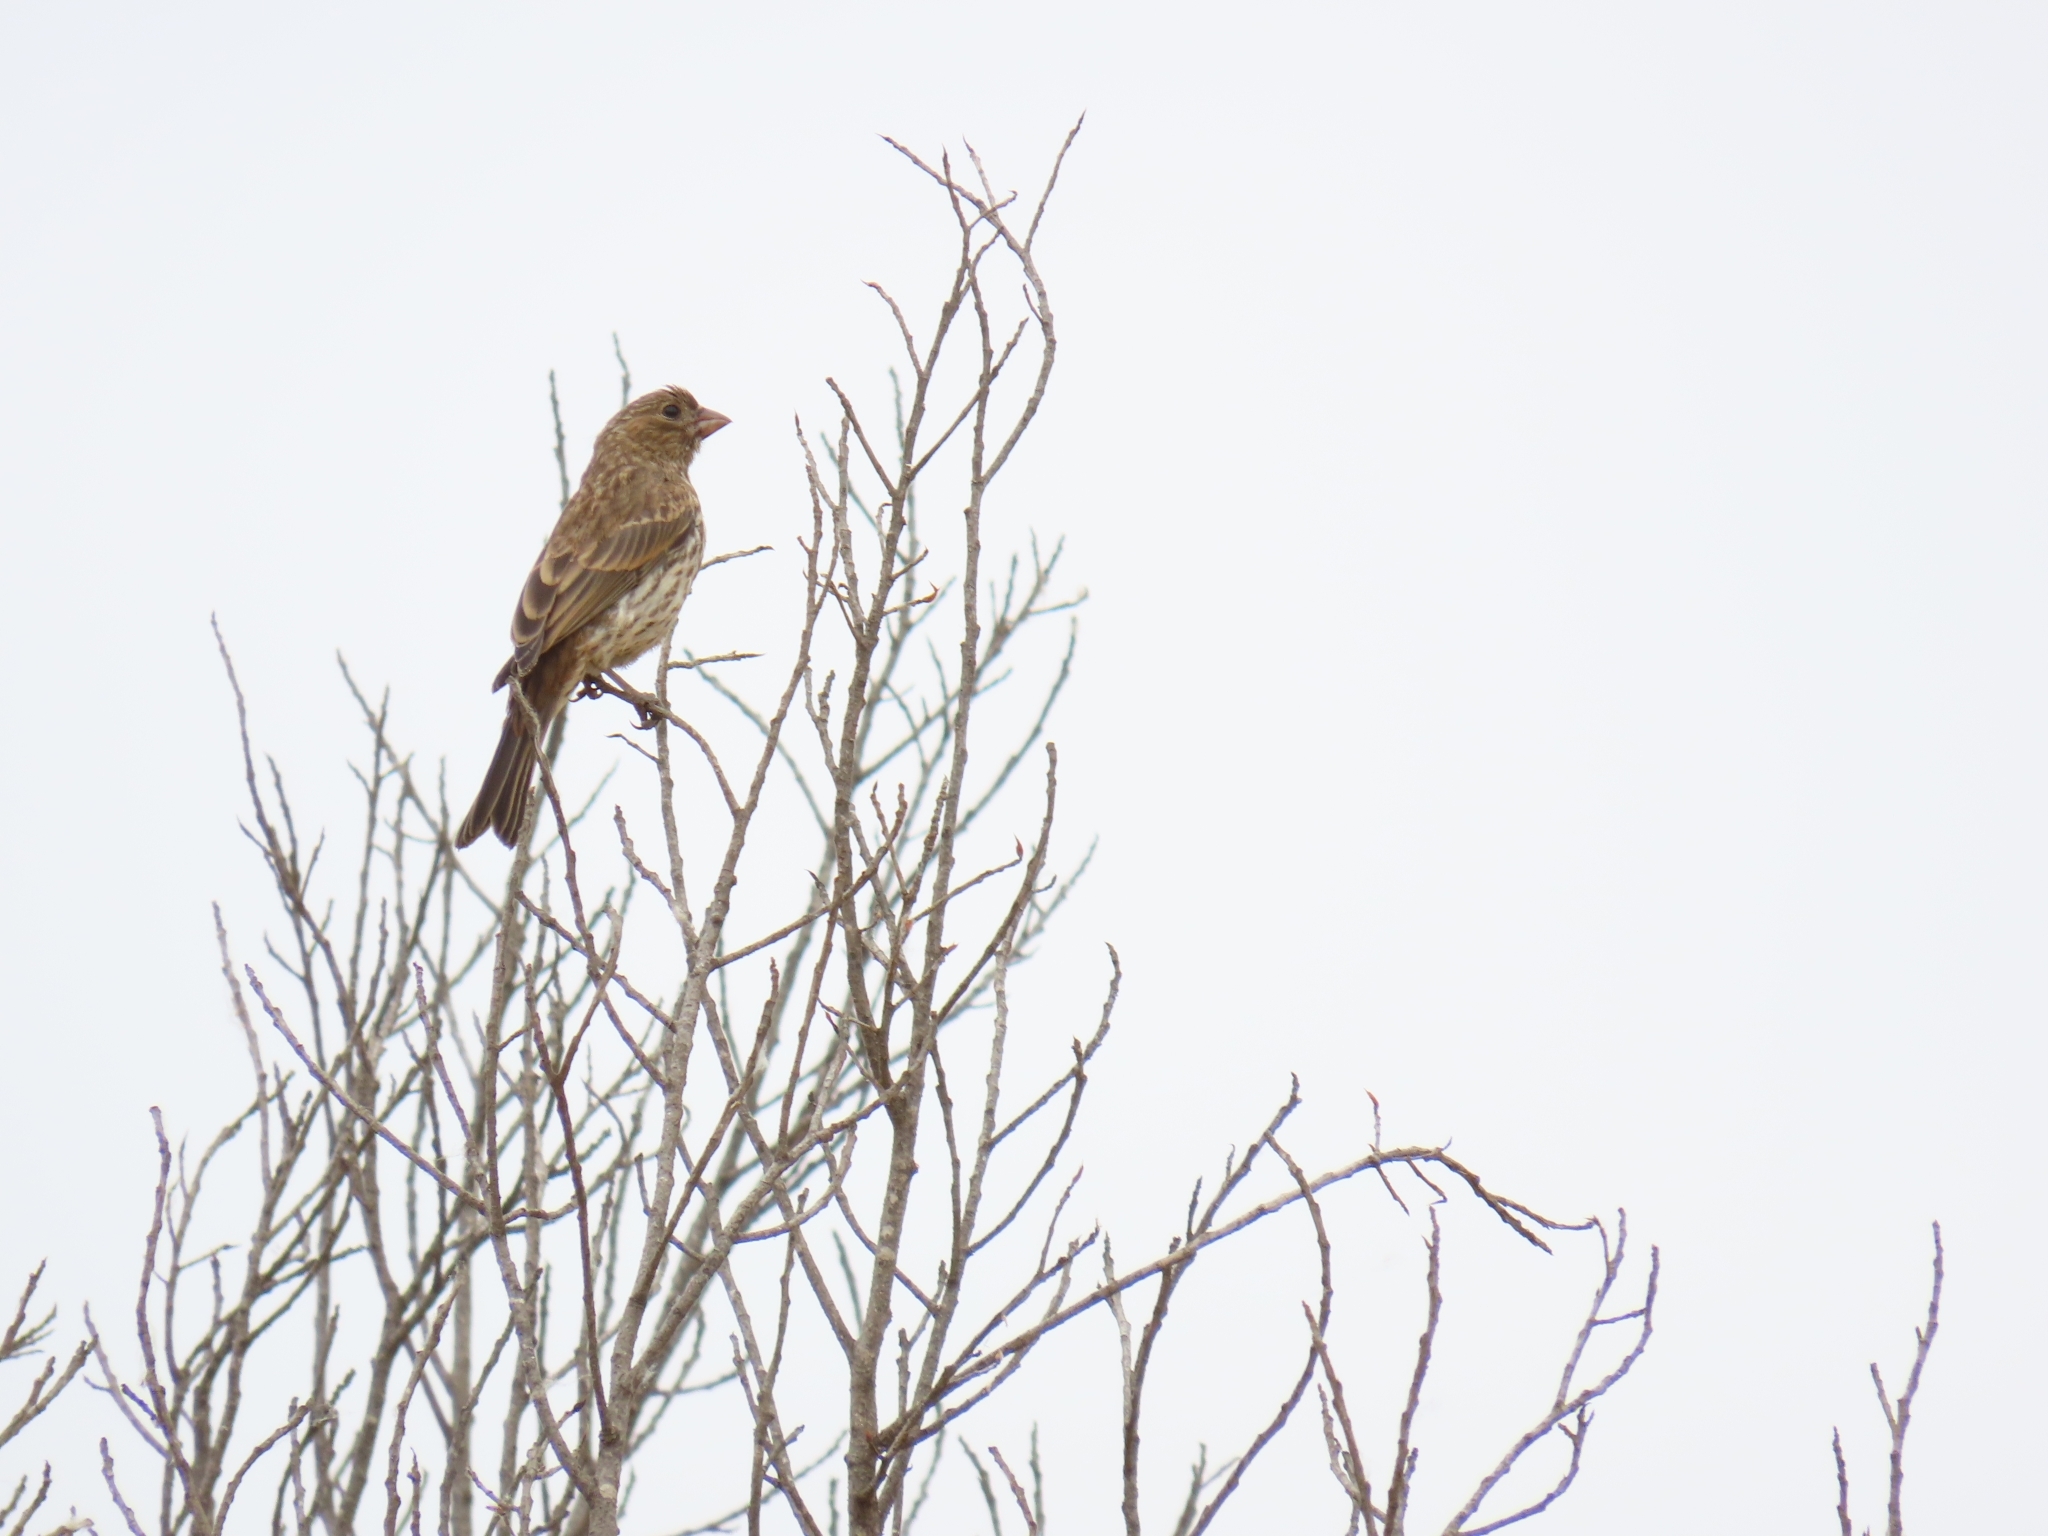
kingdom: Animalia
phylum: Chordata
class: Aves
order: Passeriformes
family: Fringillidae
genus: Haemorhous
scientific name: Haemorhous mexicanus
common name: House finch
